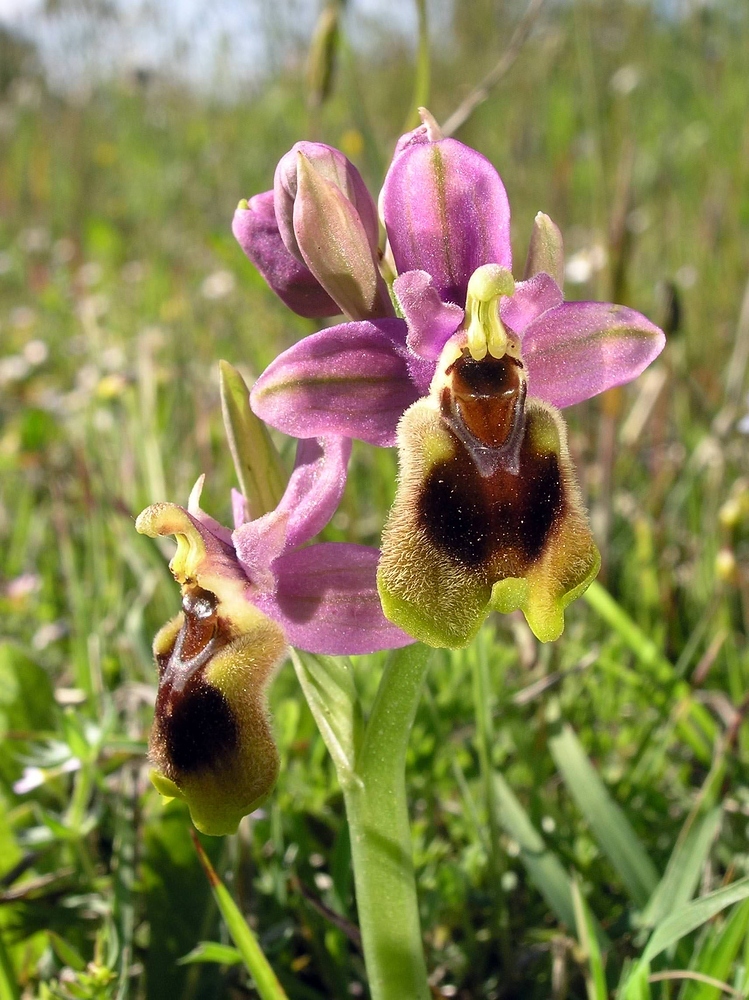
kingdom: Plantae
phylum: Tracheophyta
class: Liliopsida
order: Asparagales
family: Orchidaceae
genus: Ophrys
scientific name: Ophrys tenthredinifera
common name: Sawfly orchid
